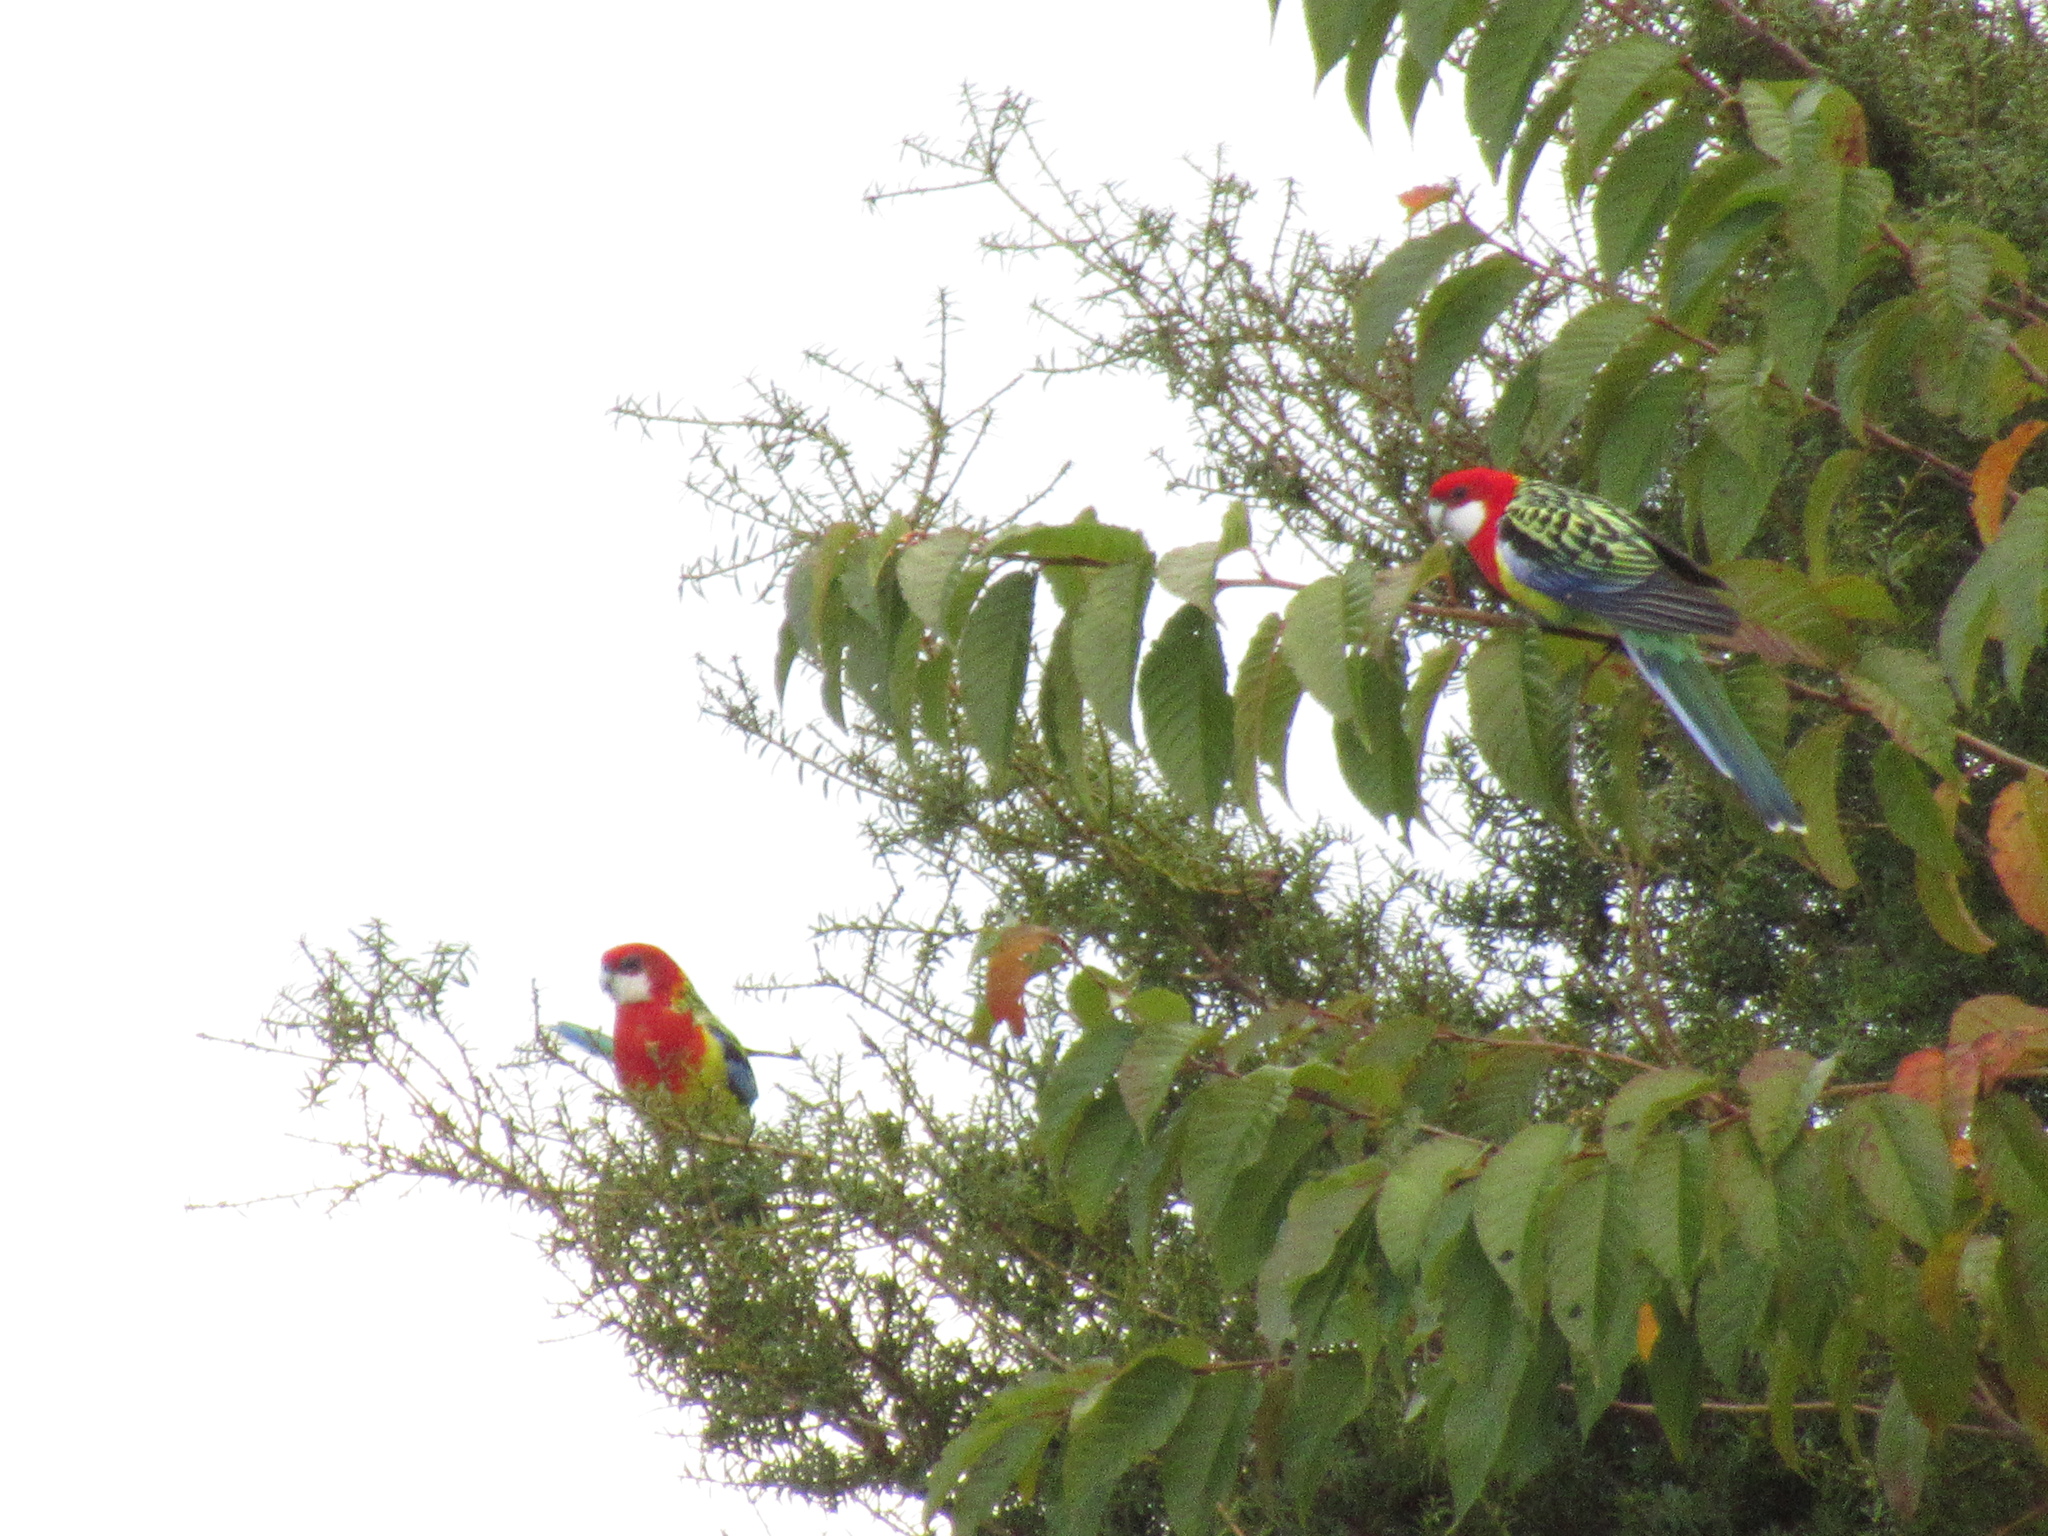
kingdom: Animalia
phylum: Chordata
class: Aves
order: Psittaciformes
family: Psittacidae
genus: Platycercus
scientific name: Platycercus eximius
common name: Eastern rosella
